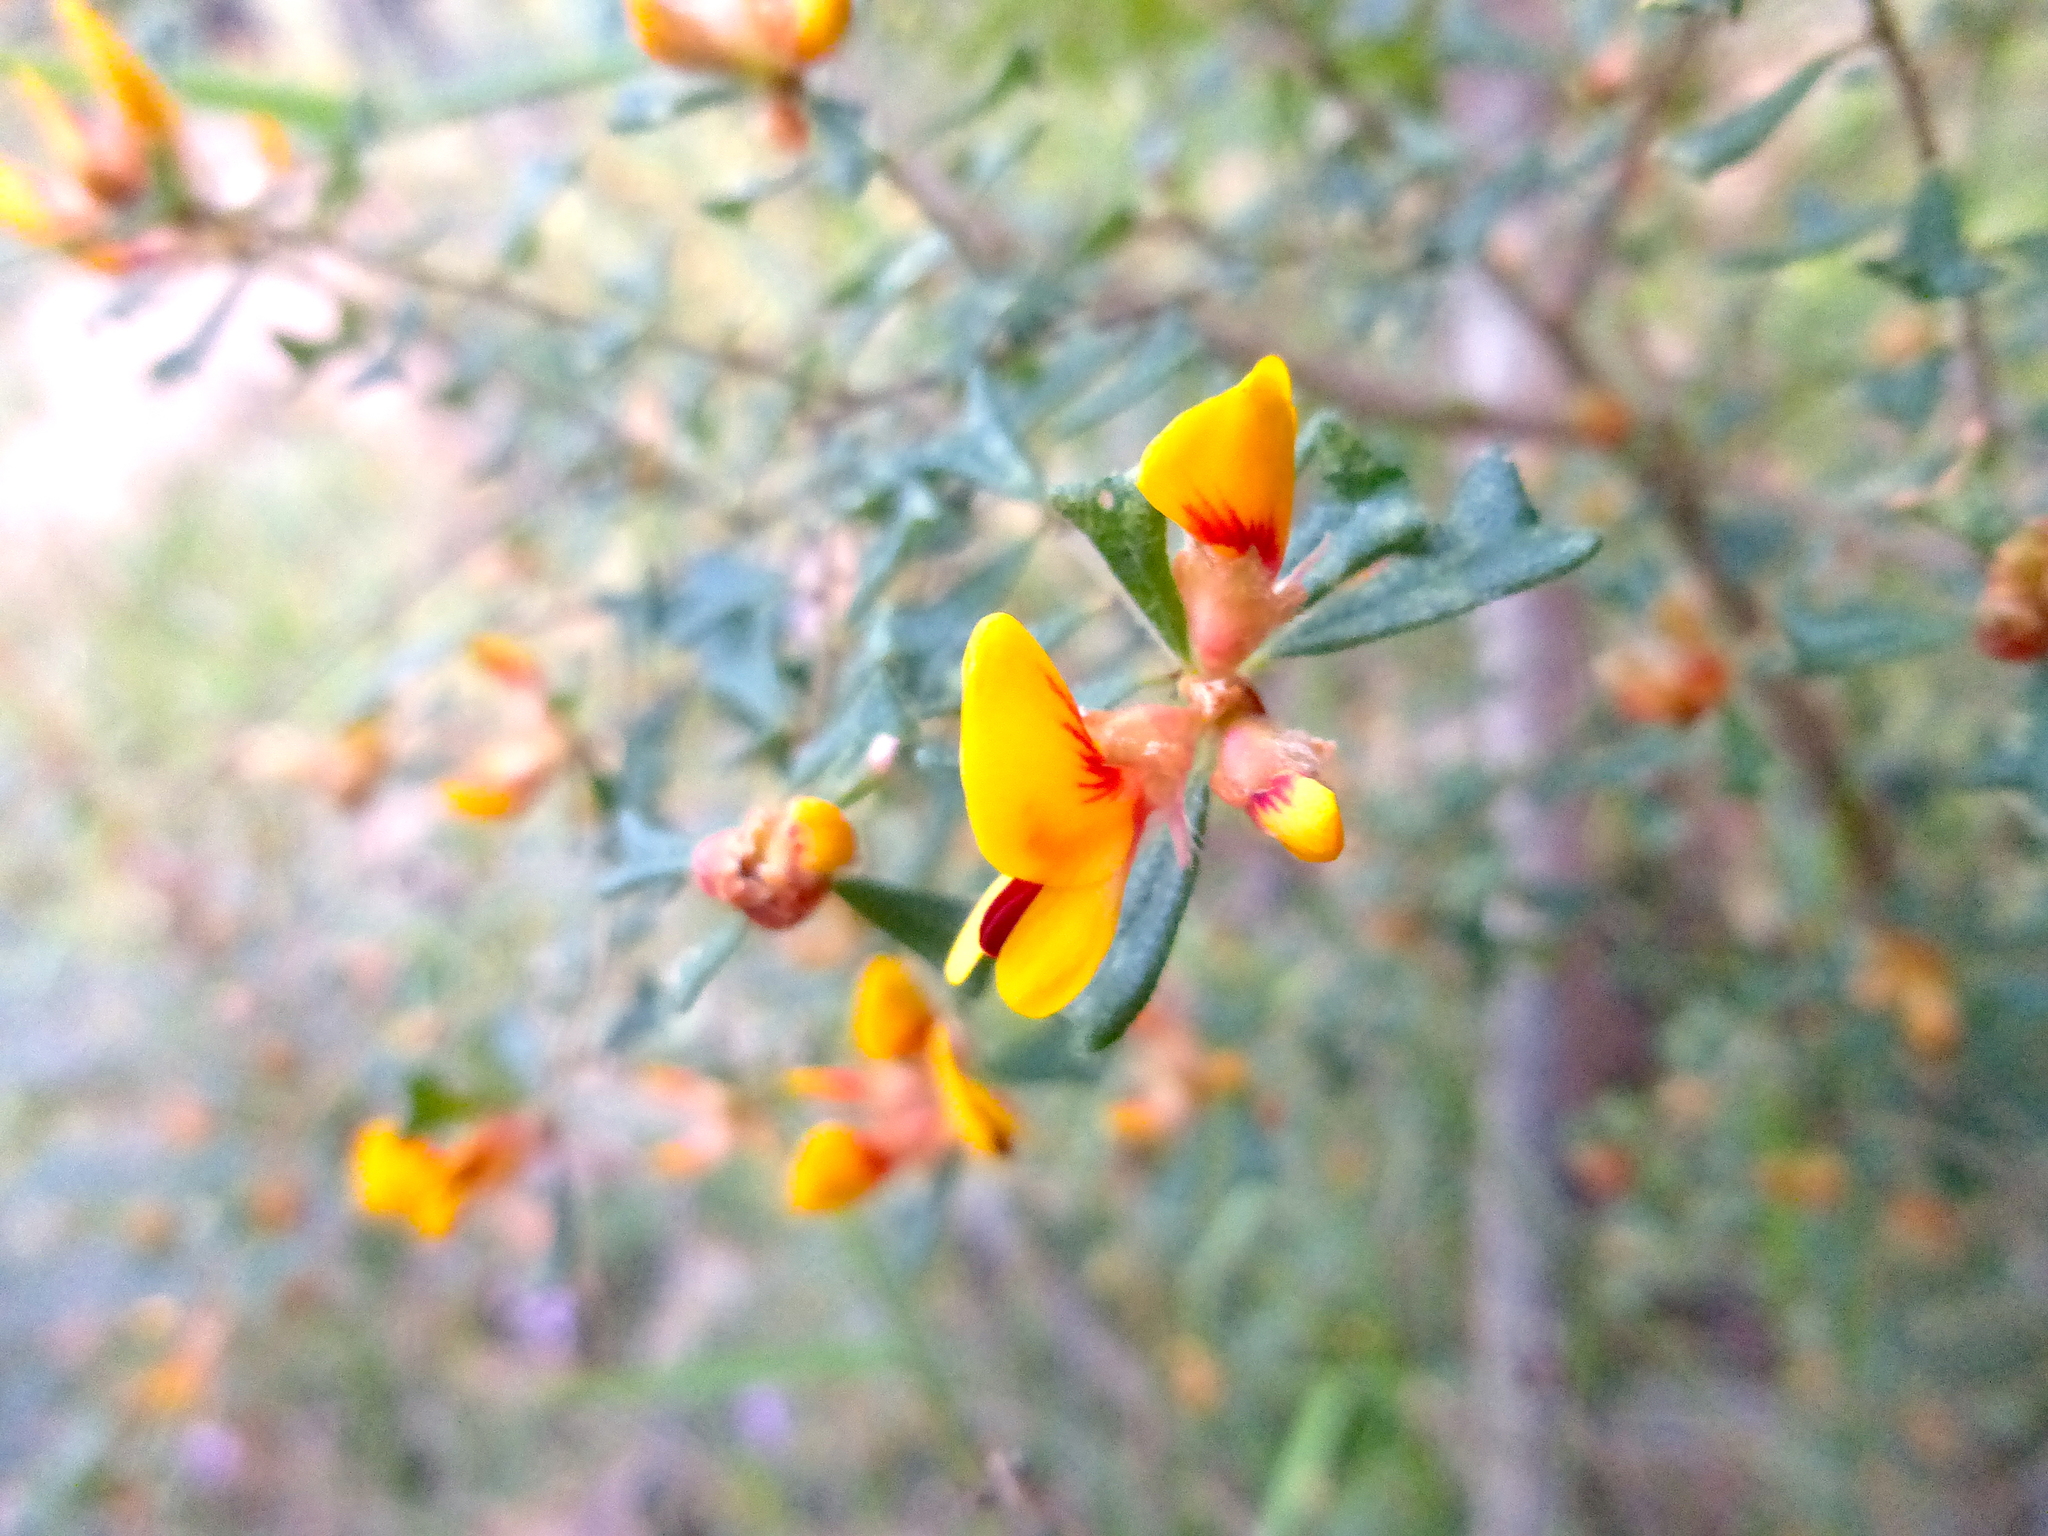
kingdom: Plantae
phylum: Tracheophyta
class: Magnoliopsida
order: Fabales
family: Fabaceae
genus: Pultenaea
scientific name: Pultenaea scabra
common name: Rough bush-pea
